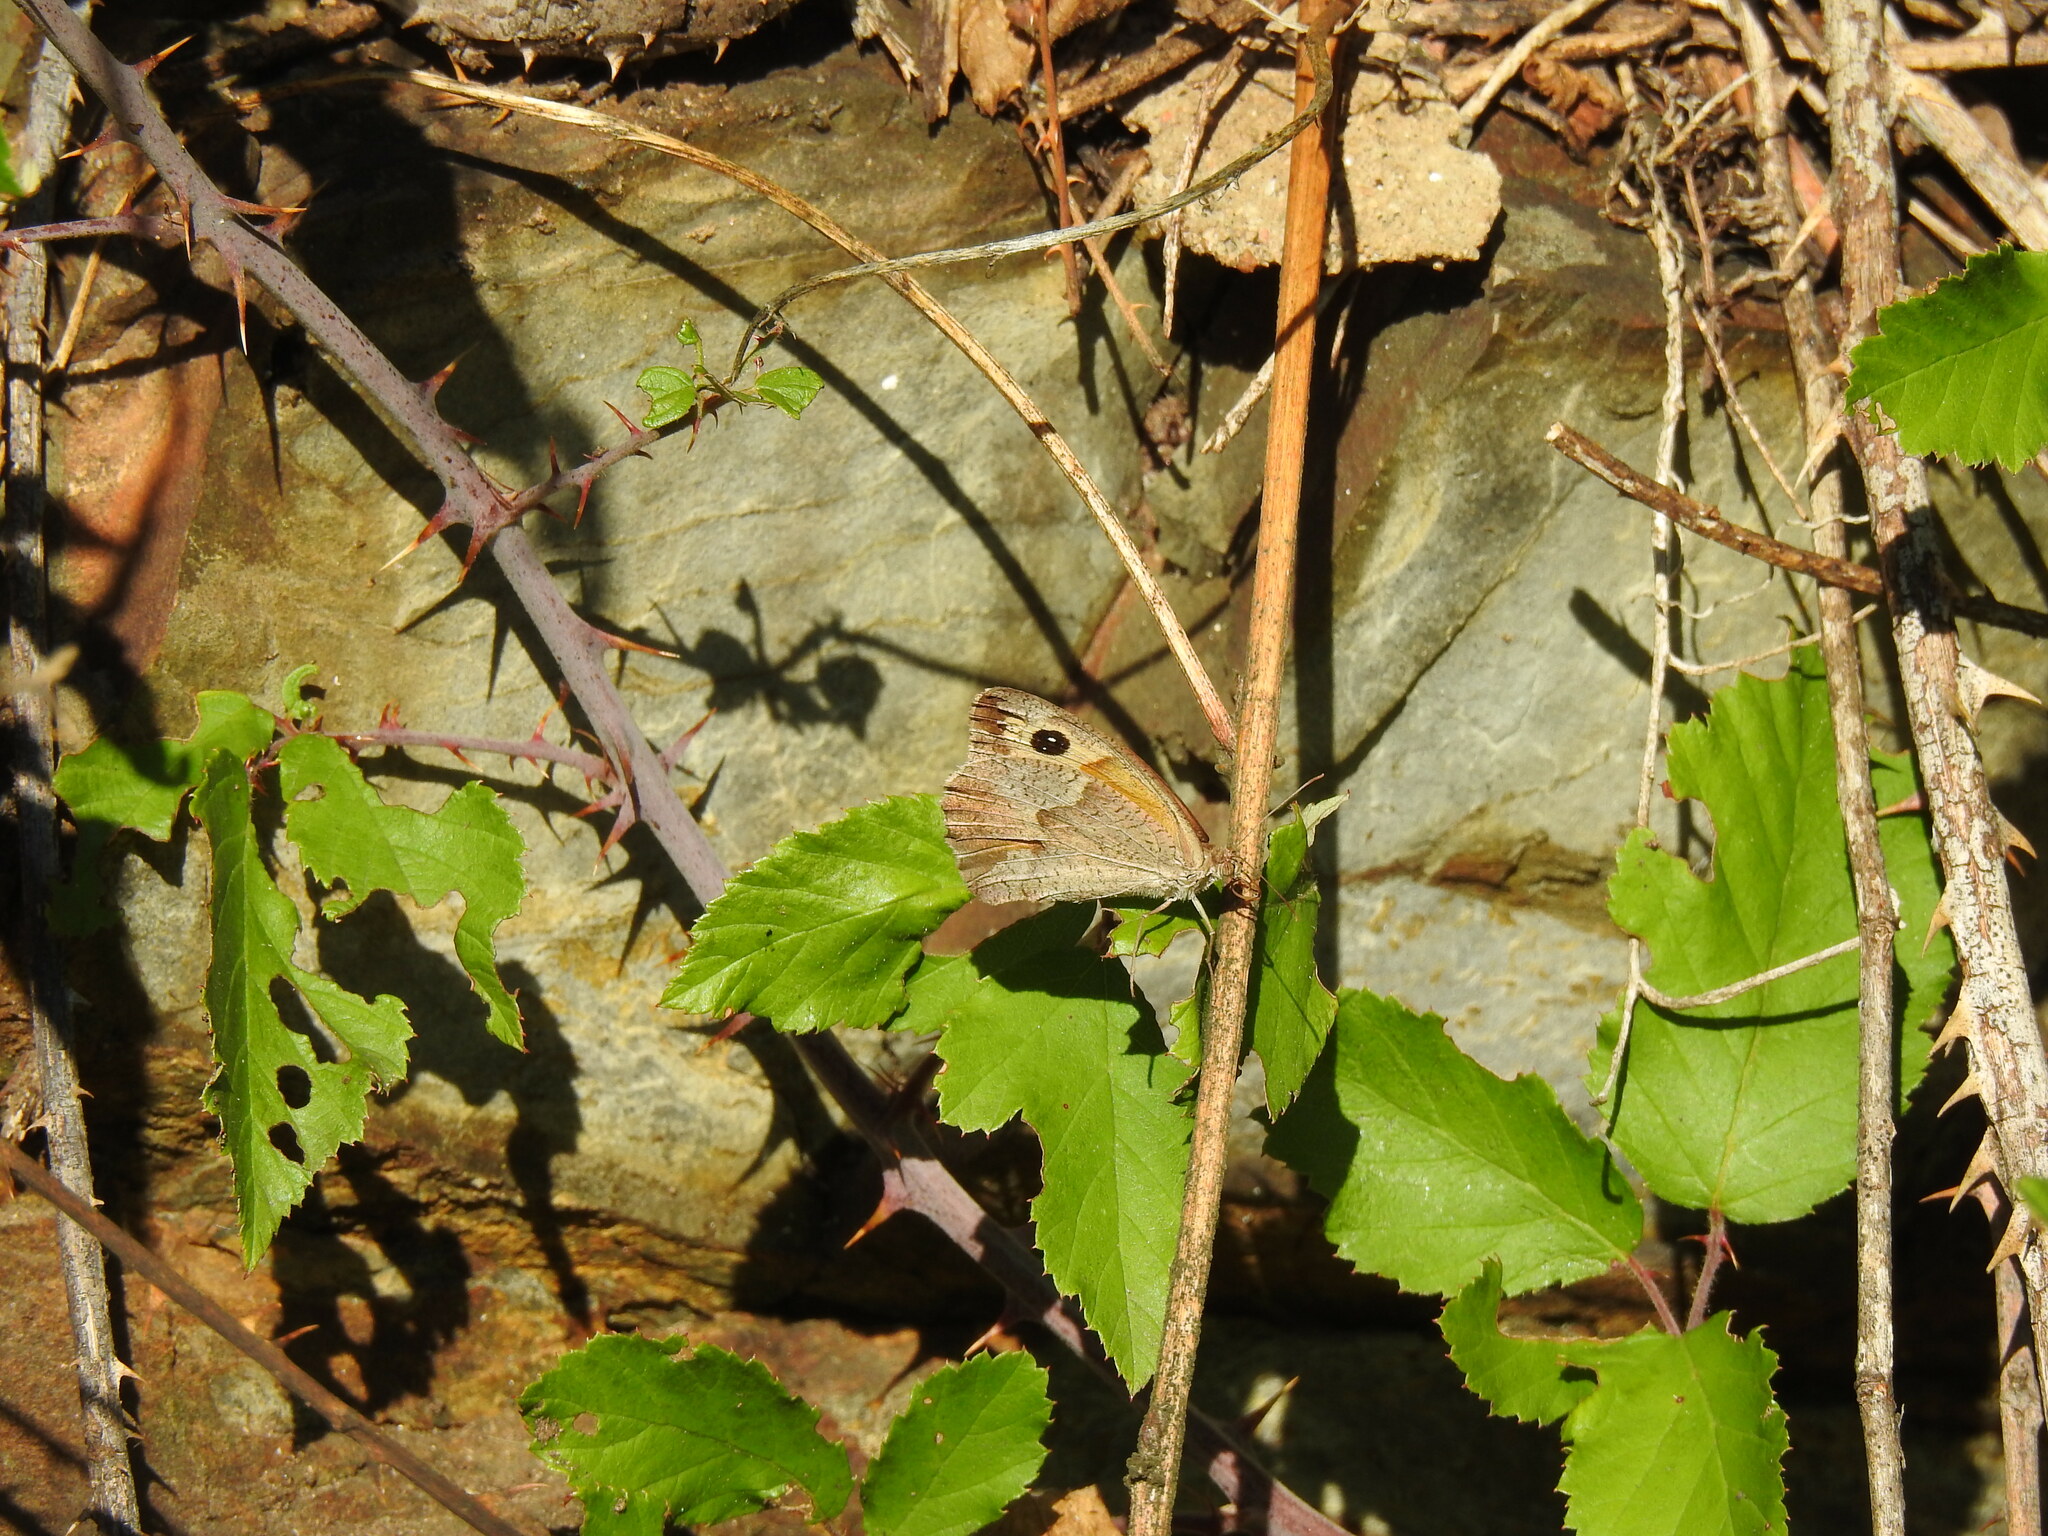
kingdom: Animalia
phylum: Arthropoda
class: Insecta
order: Lepidoptera
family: Nymphalidae
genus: Maniola
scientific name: Maniola jurtina
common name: Meadow brown
